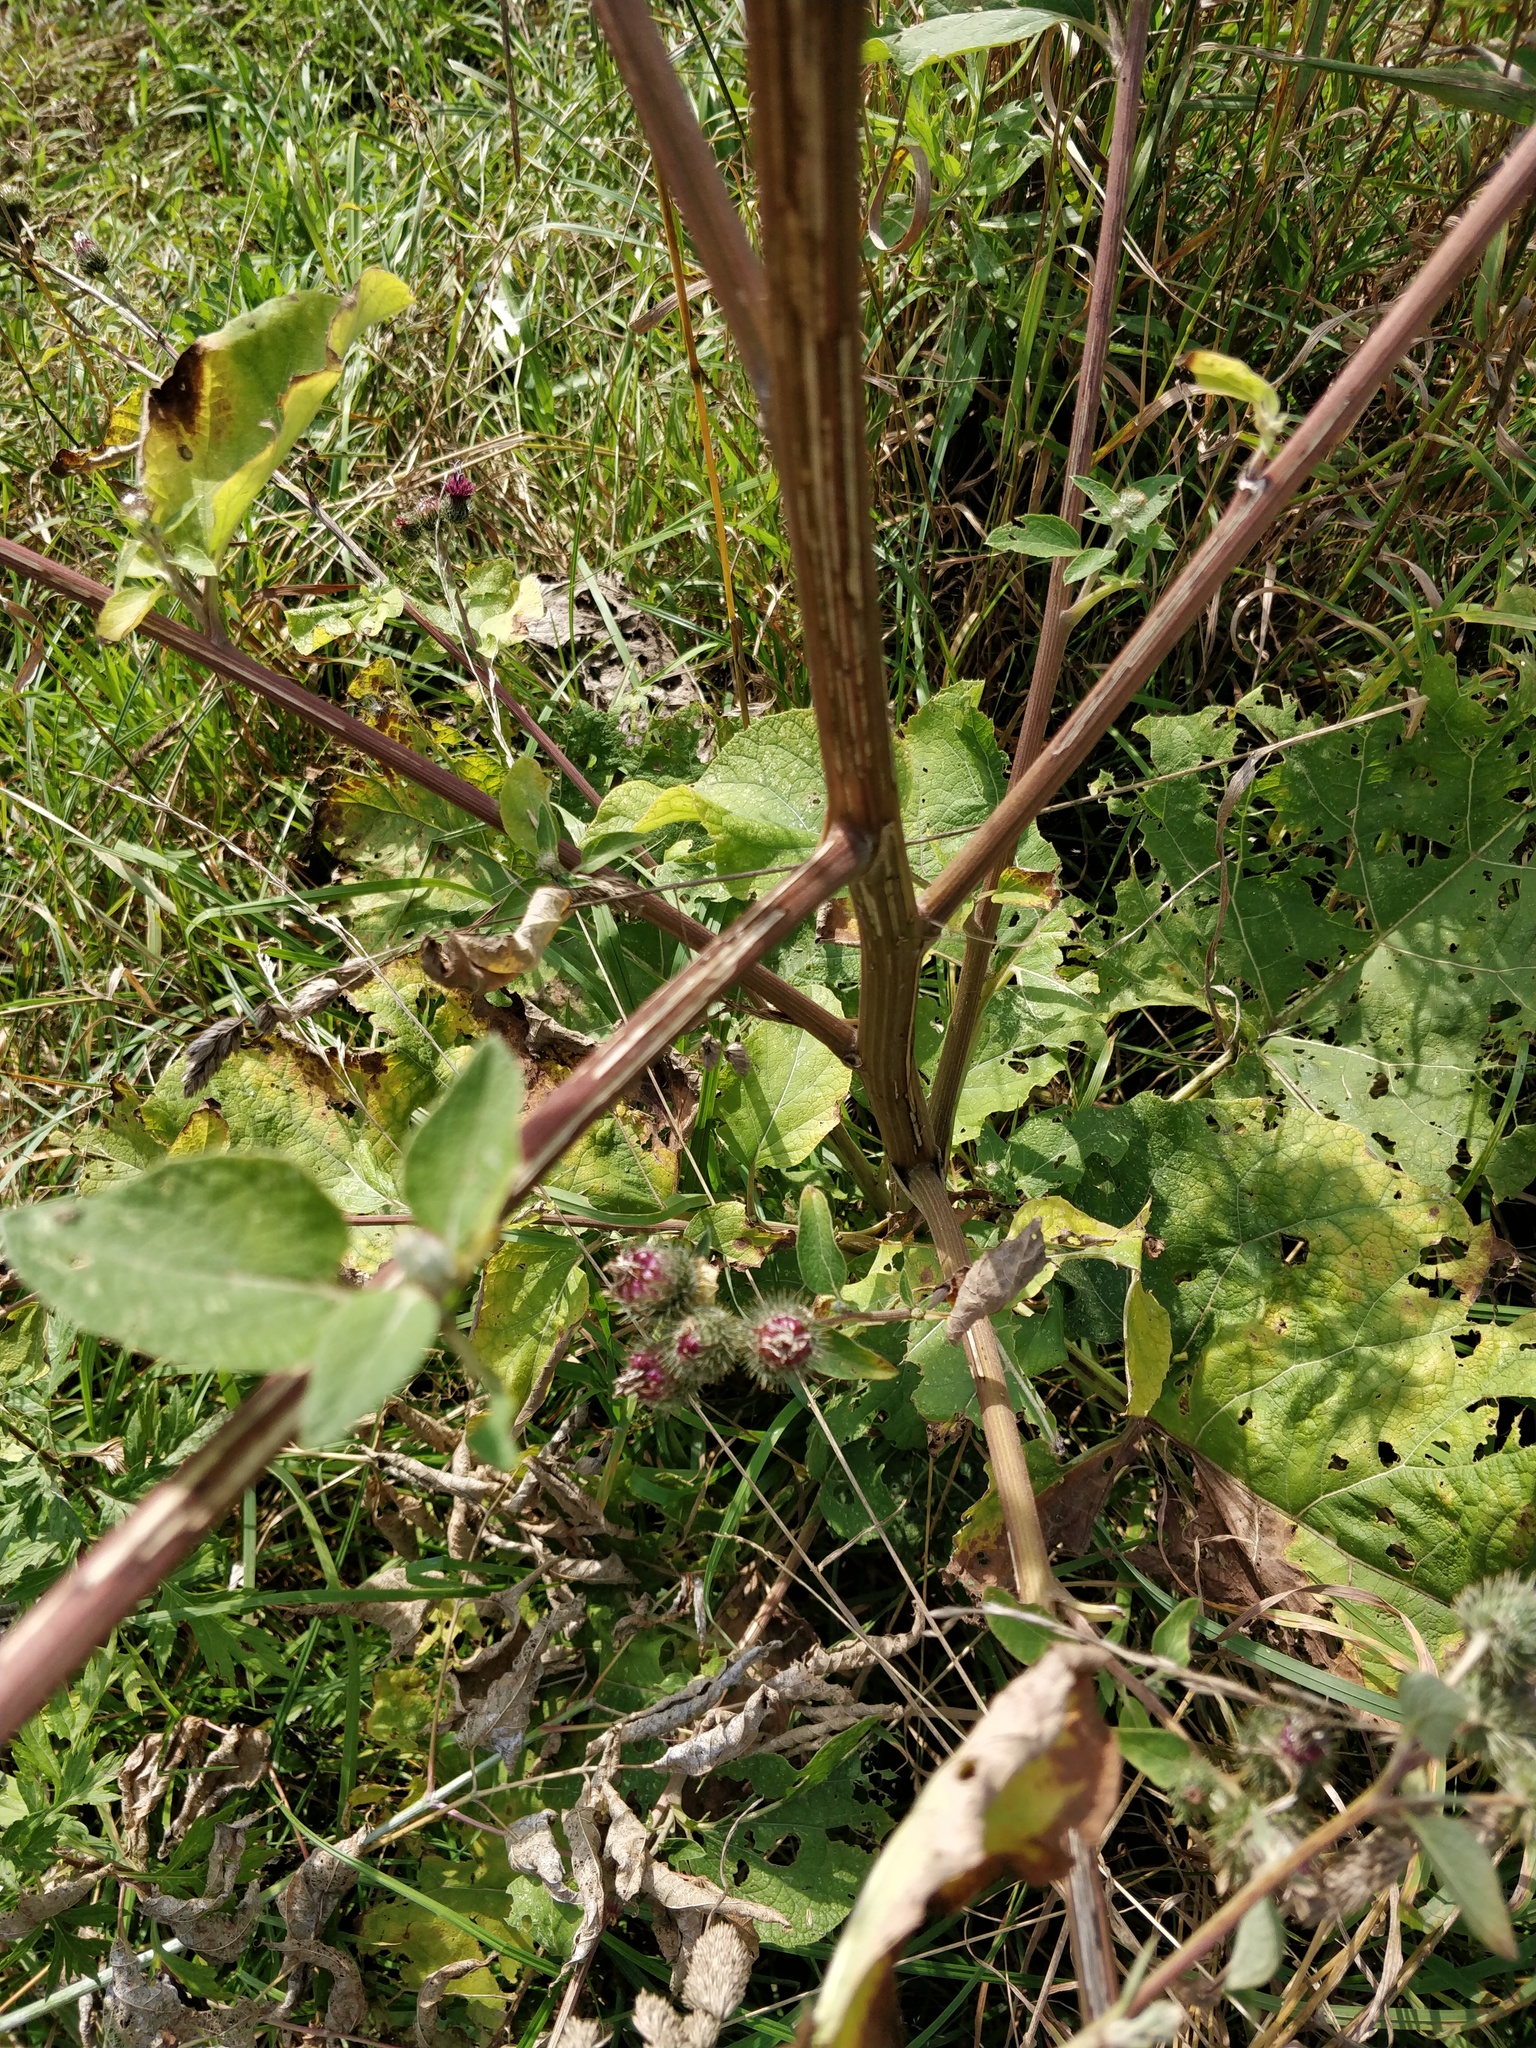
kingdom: Plantae
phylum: Tracheophyta
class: Magnoliopsida
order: Asterales
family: Asteraceae
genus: Arctium
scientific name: Arctium lappa
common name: Greater burdock
